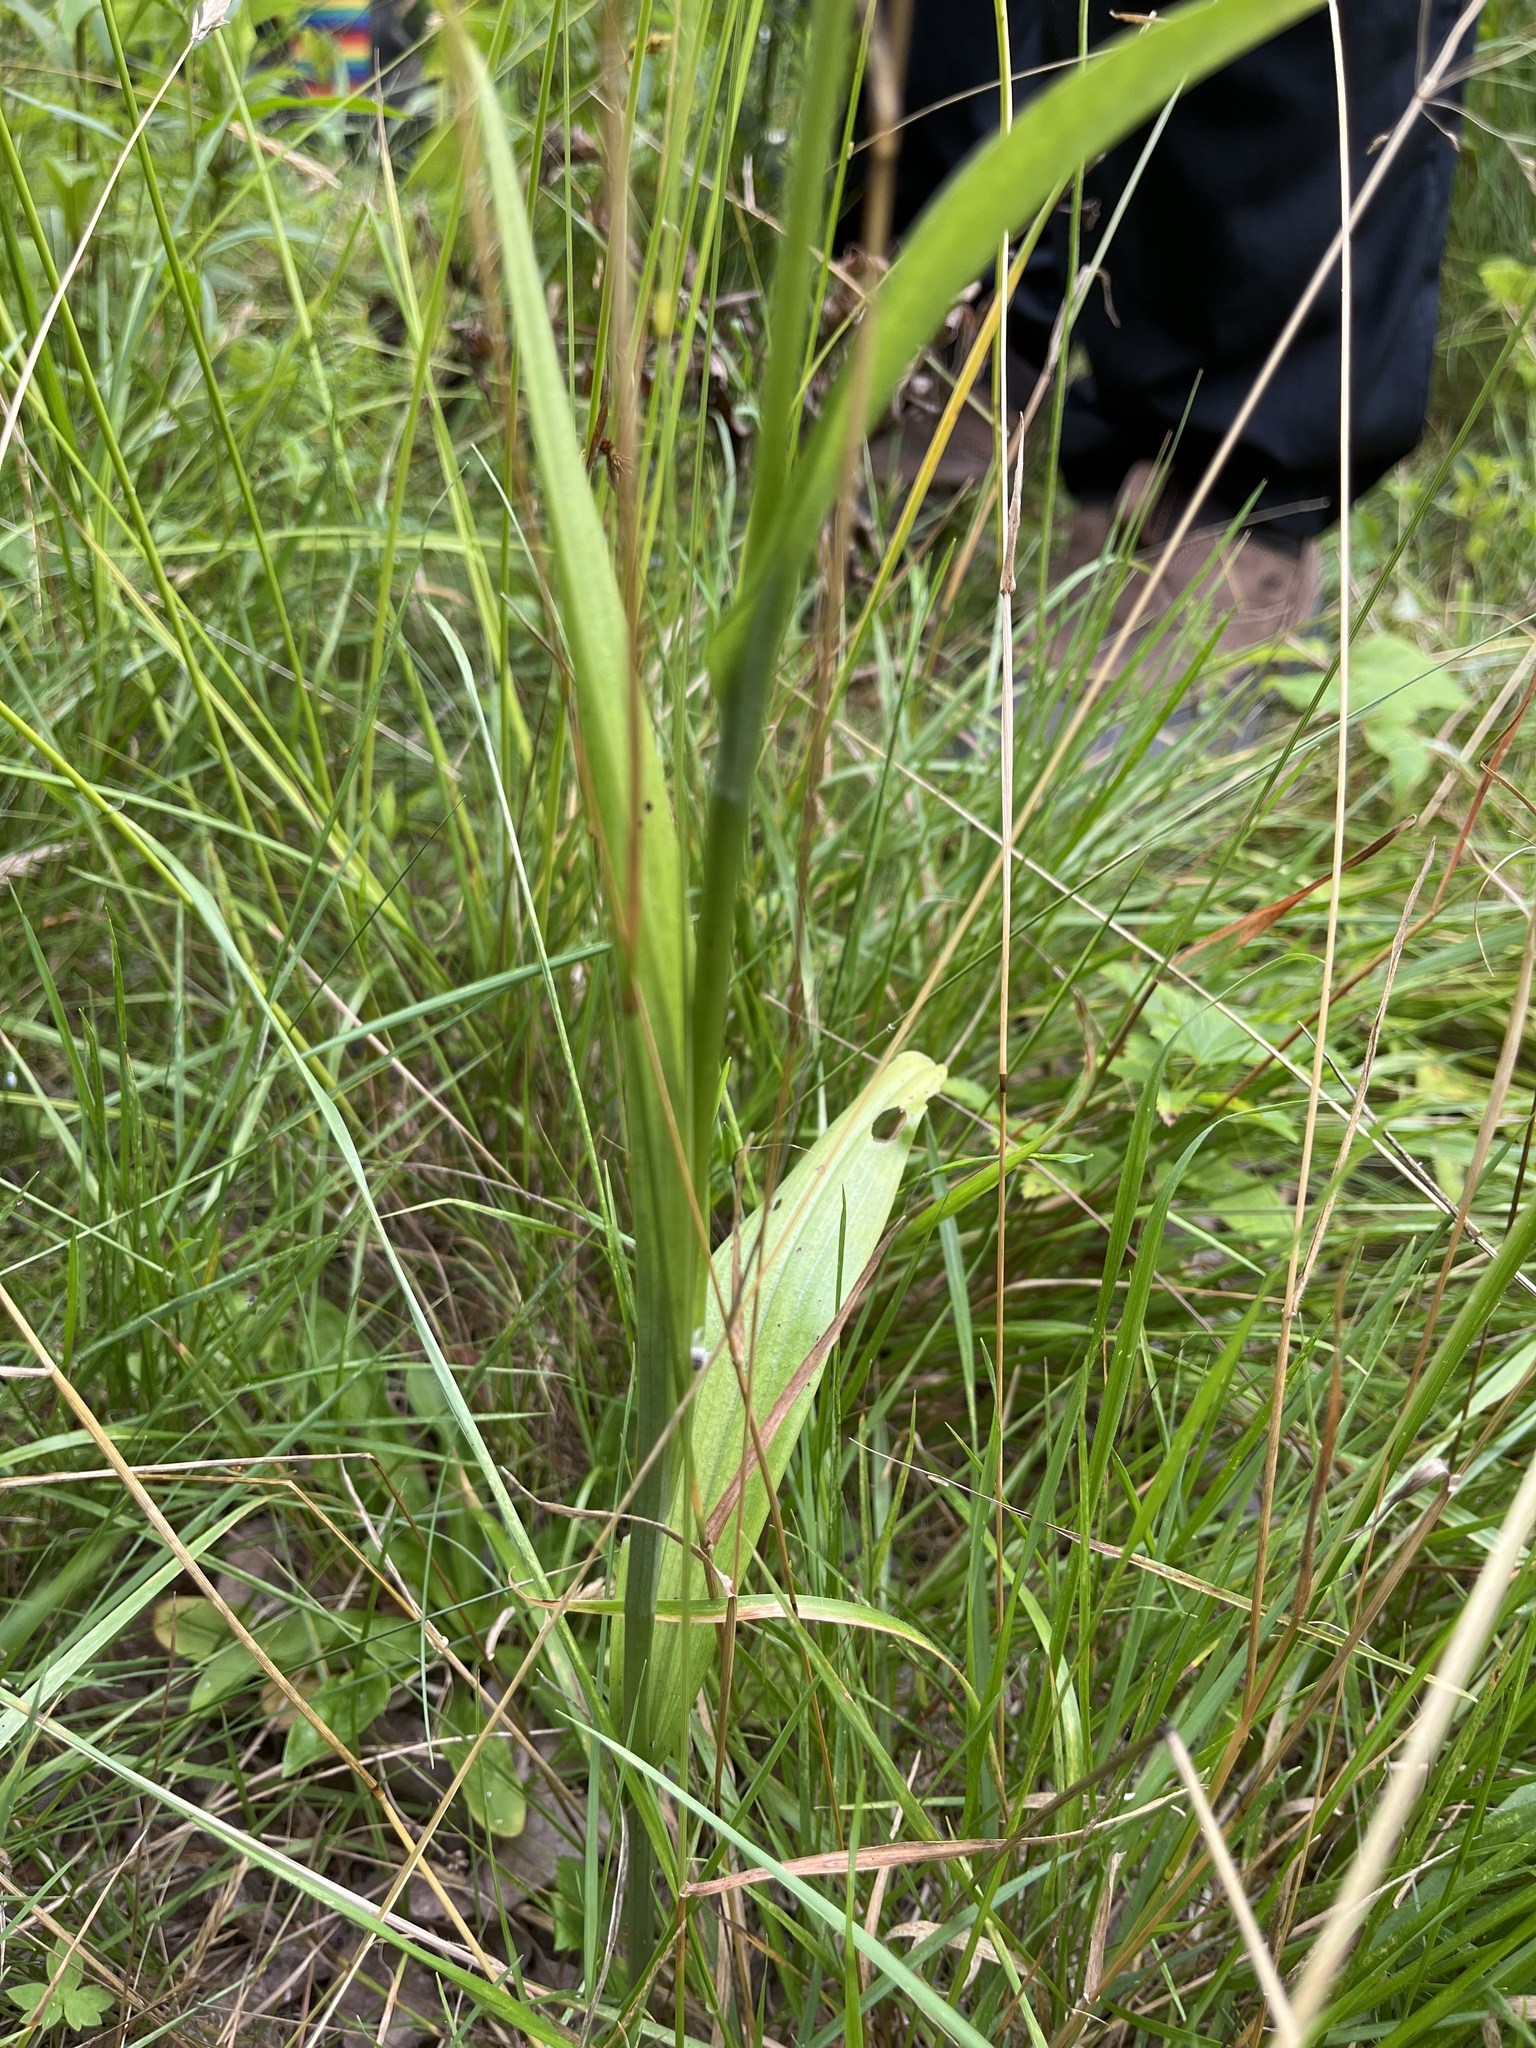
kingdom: Plantae
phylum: Tracheophyta
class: Liliopsida
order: Asparagales
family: Orchidaceae
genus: Platanthera
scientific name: Platanthera lacera
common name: Green fringed orchid
